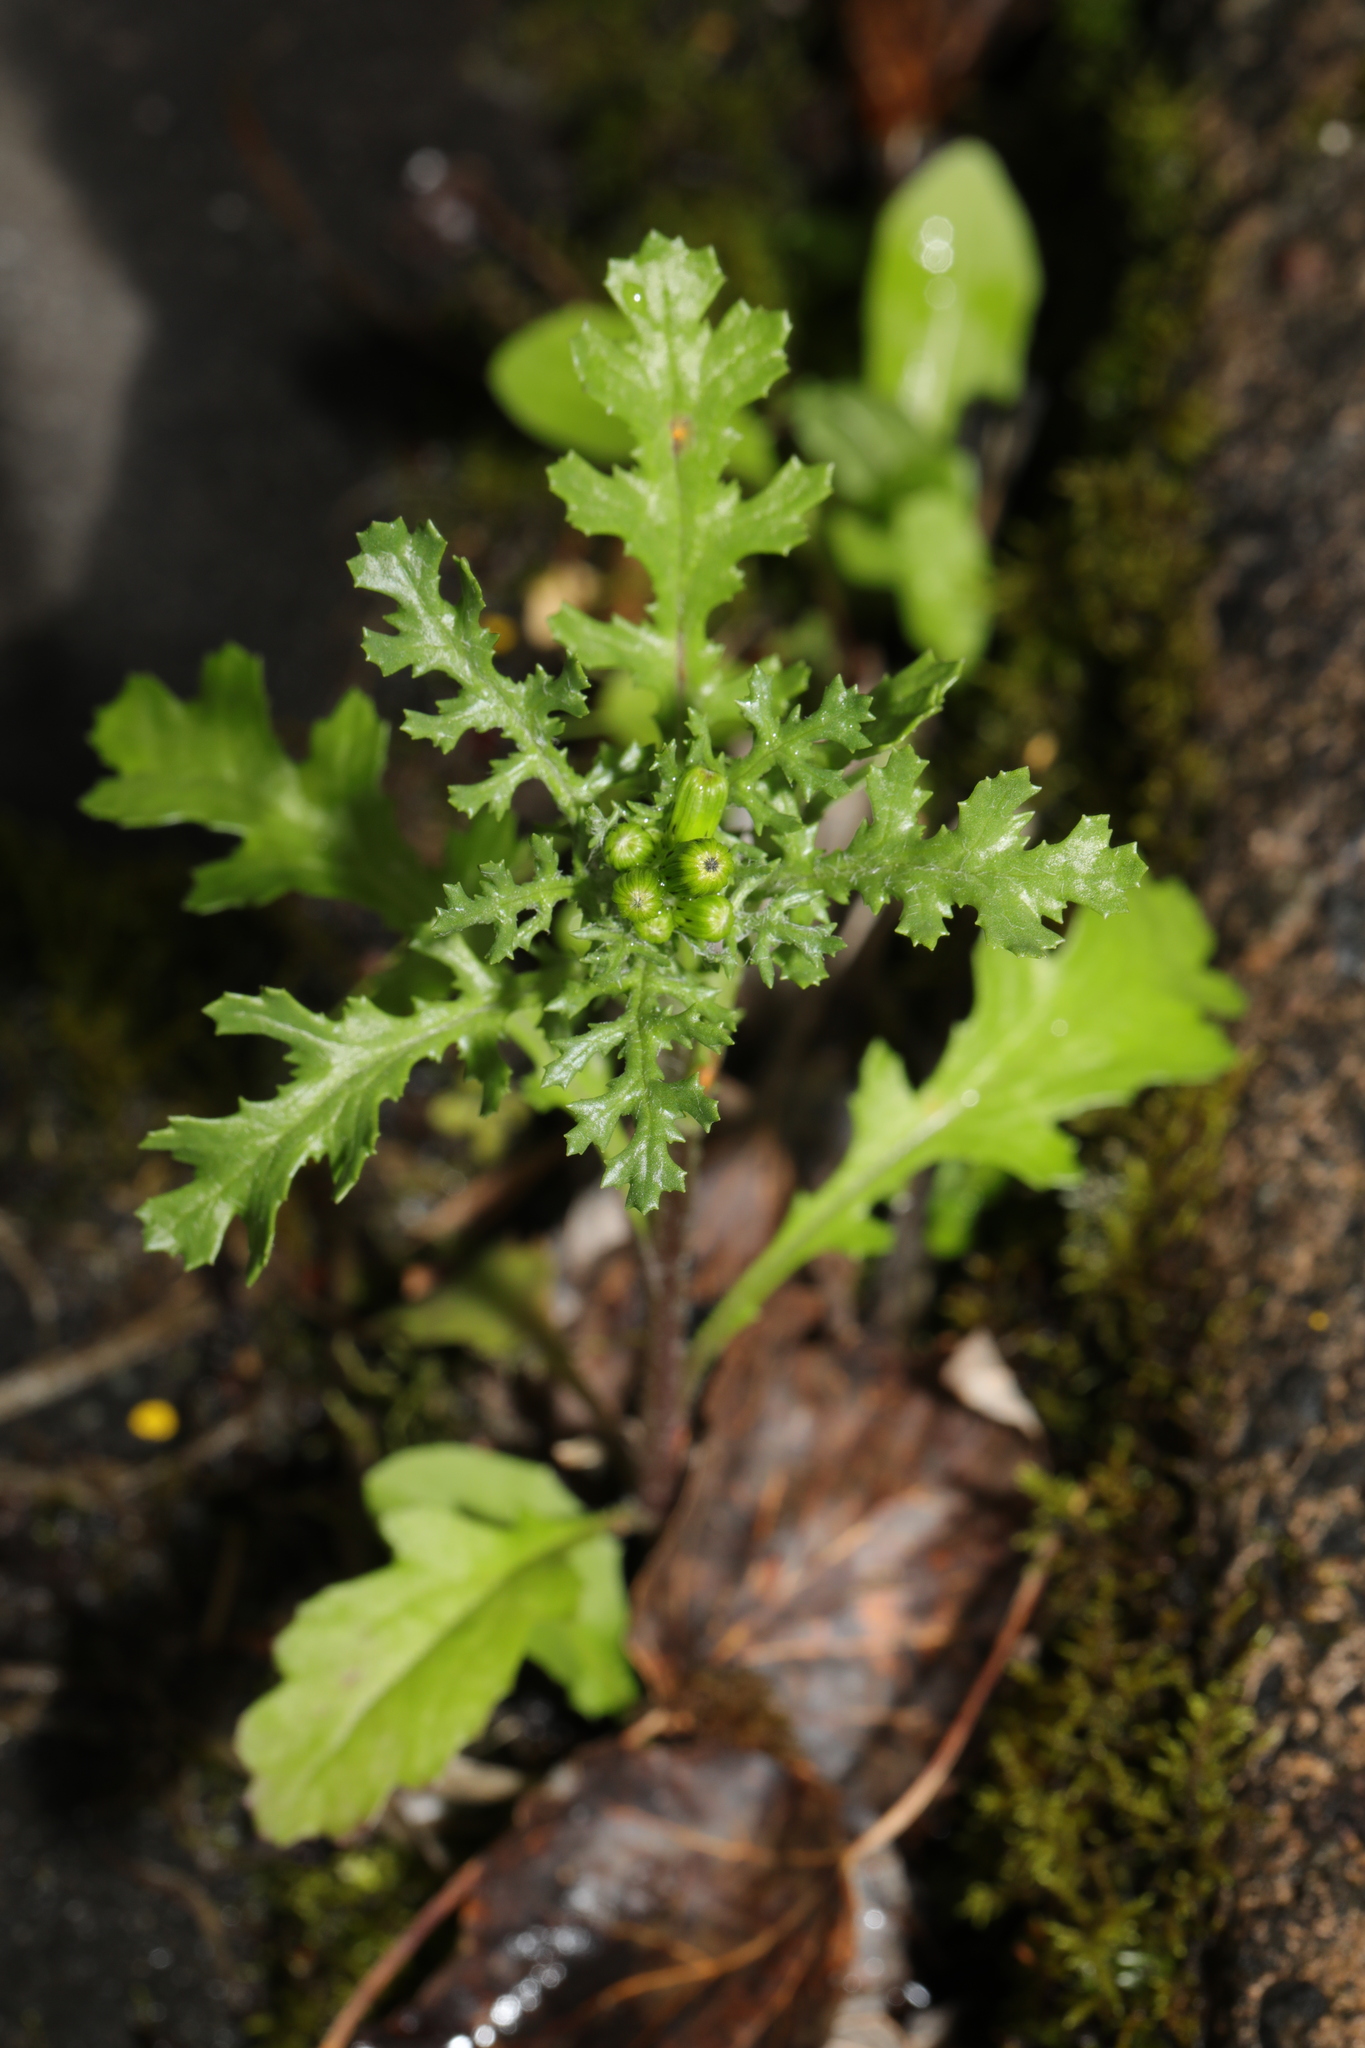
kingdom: Plantae
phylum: Tracheophyta
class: Magnoliopsida
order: Asterales
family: Asteraceae
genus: Senecio
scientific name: Senecio vulgaris
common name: Old-man-in-the-spring
